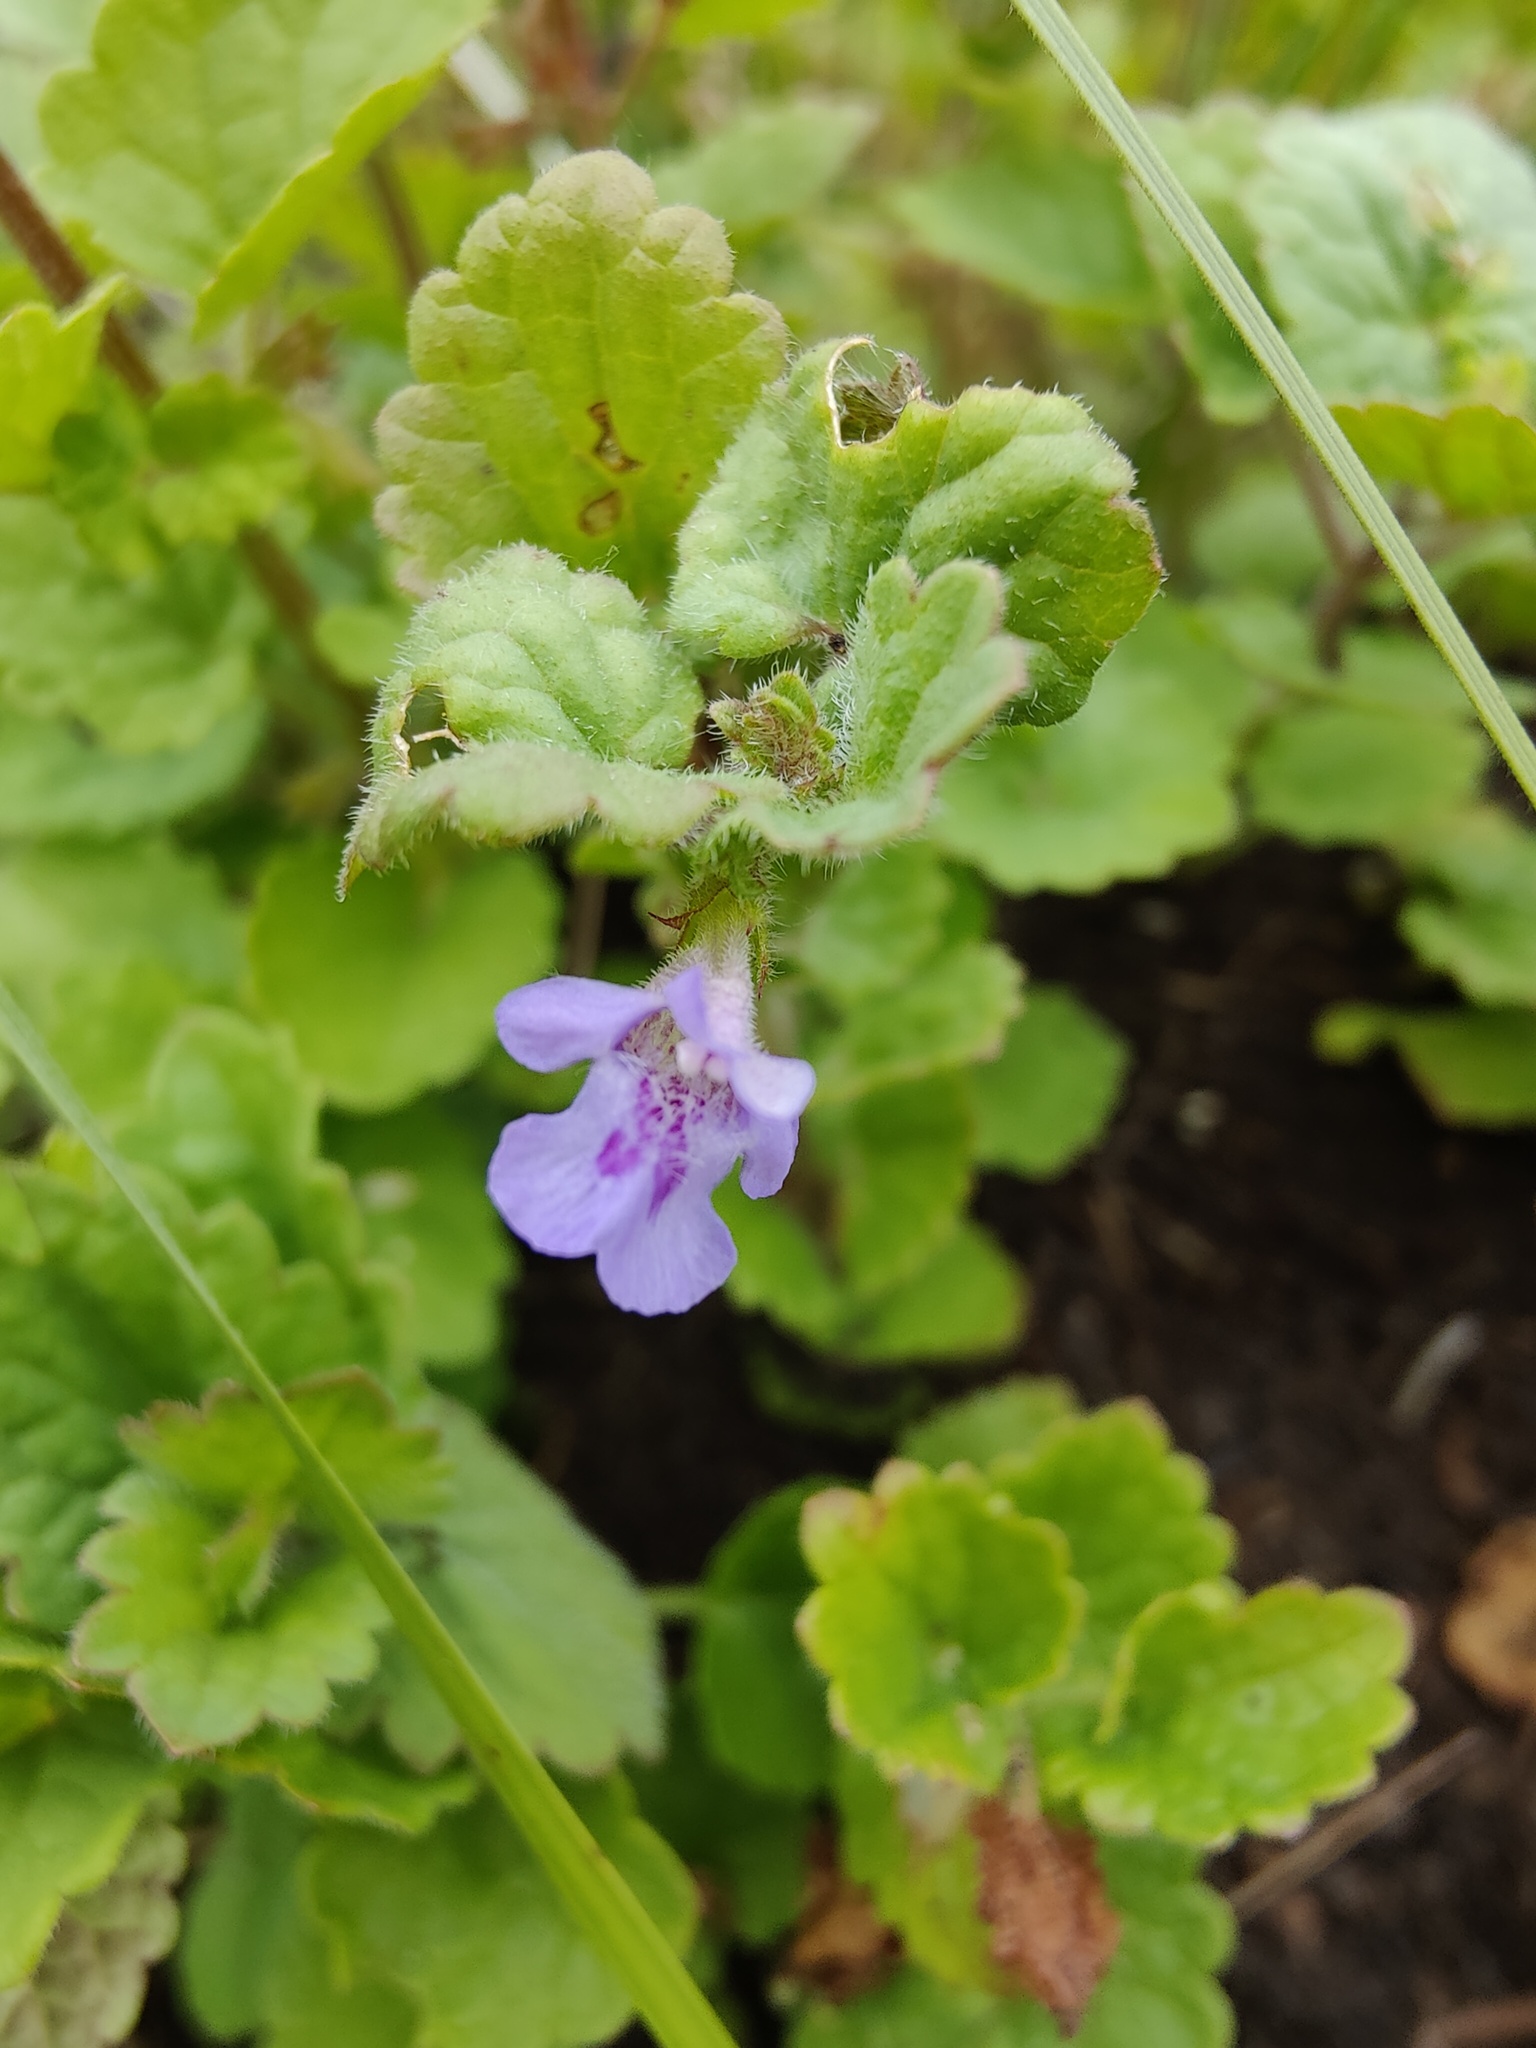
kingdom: Plantae
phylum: Tracheophyta
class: Magnoliopsida
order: Lamiales
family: Lamiaceae
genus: Glechoma
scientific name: Glechoma hederacea
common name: Ground ivy
